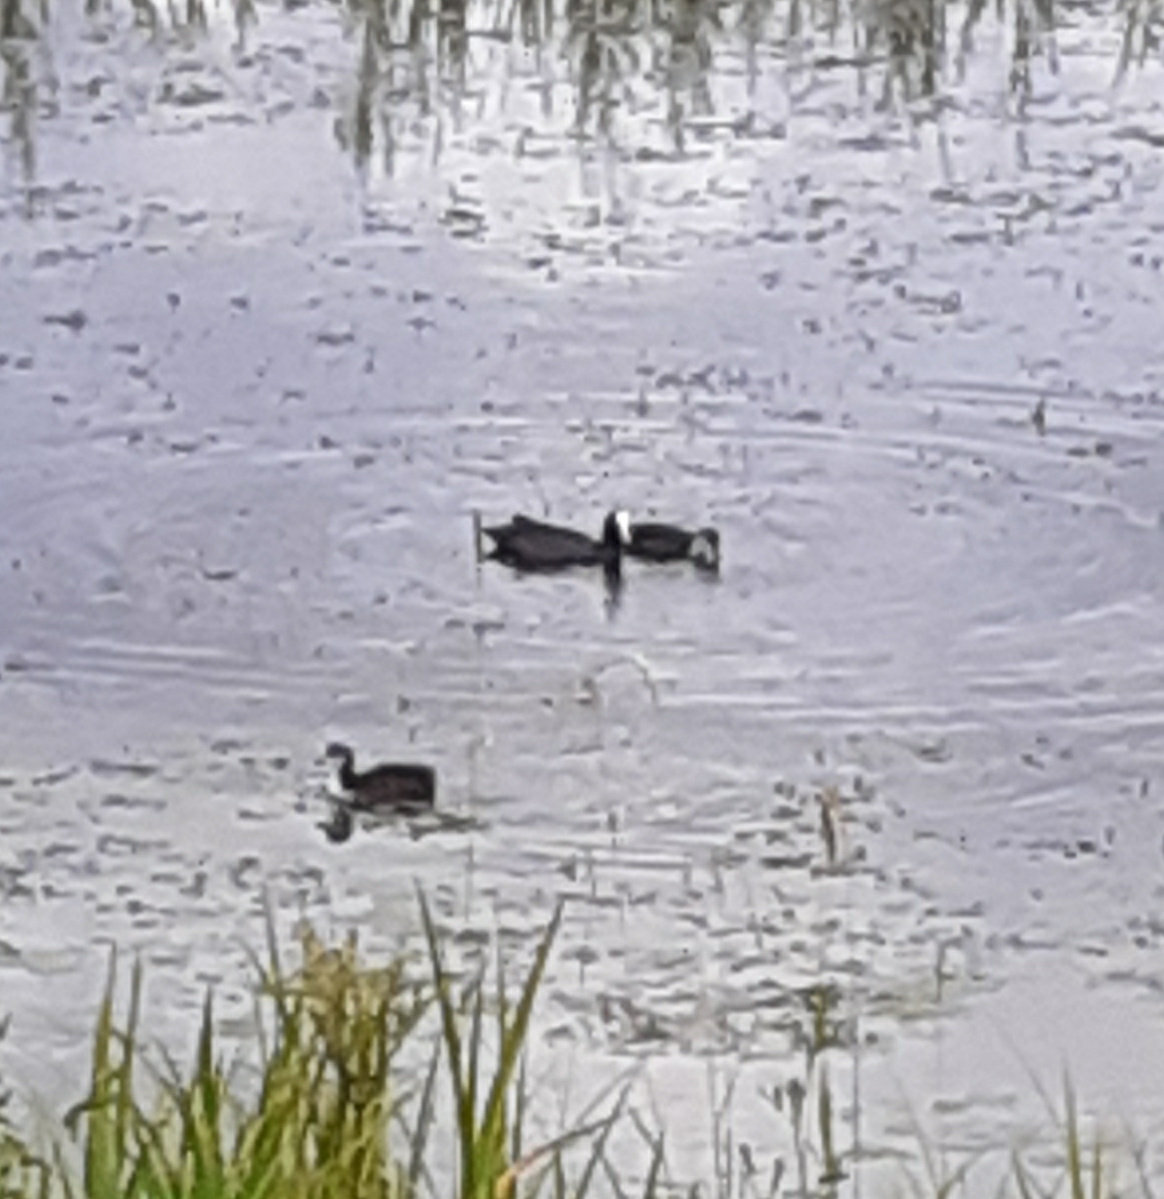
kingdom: Animalia
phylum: Chordata
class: Aves
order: Gruiformes
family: Rallidae
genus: Fulica
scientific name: Fulica atra
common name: Eurasian coot
